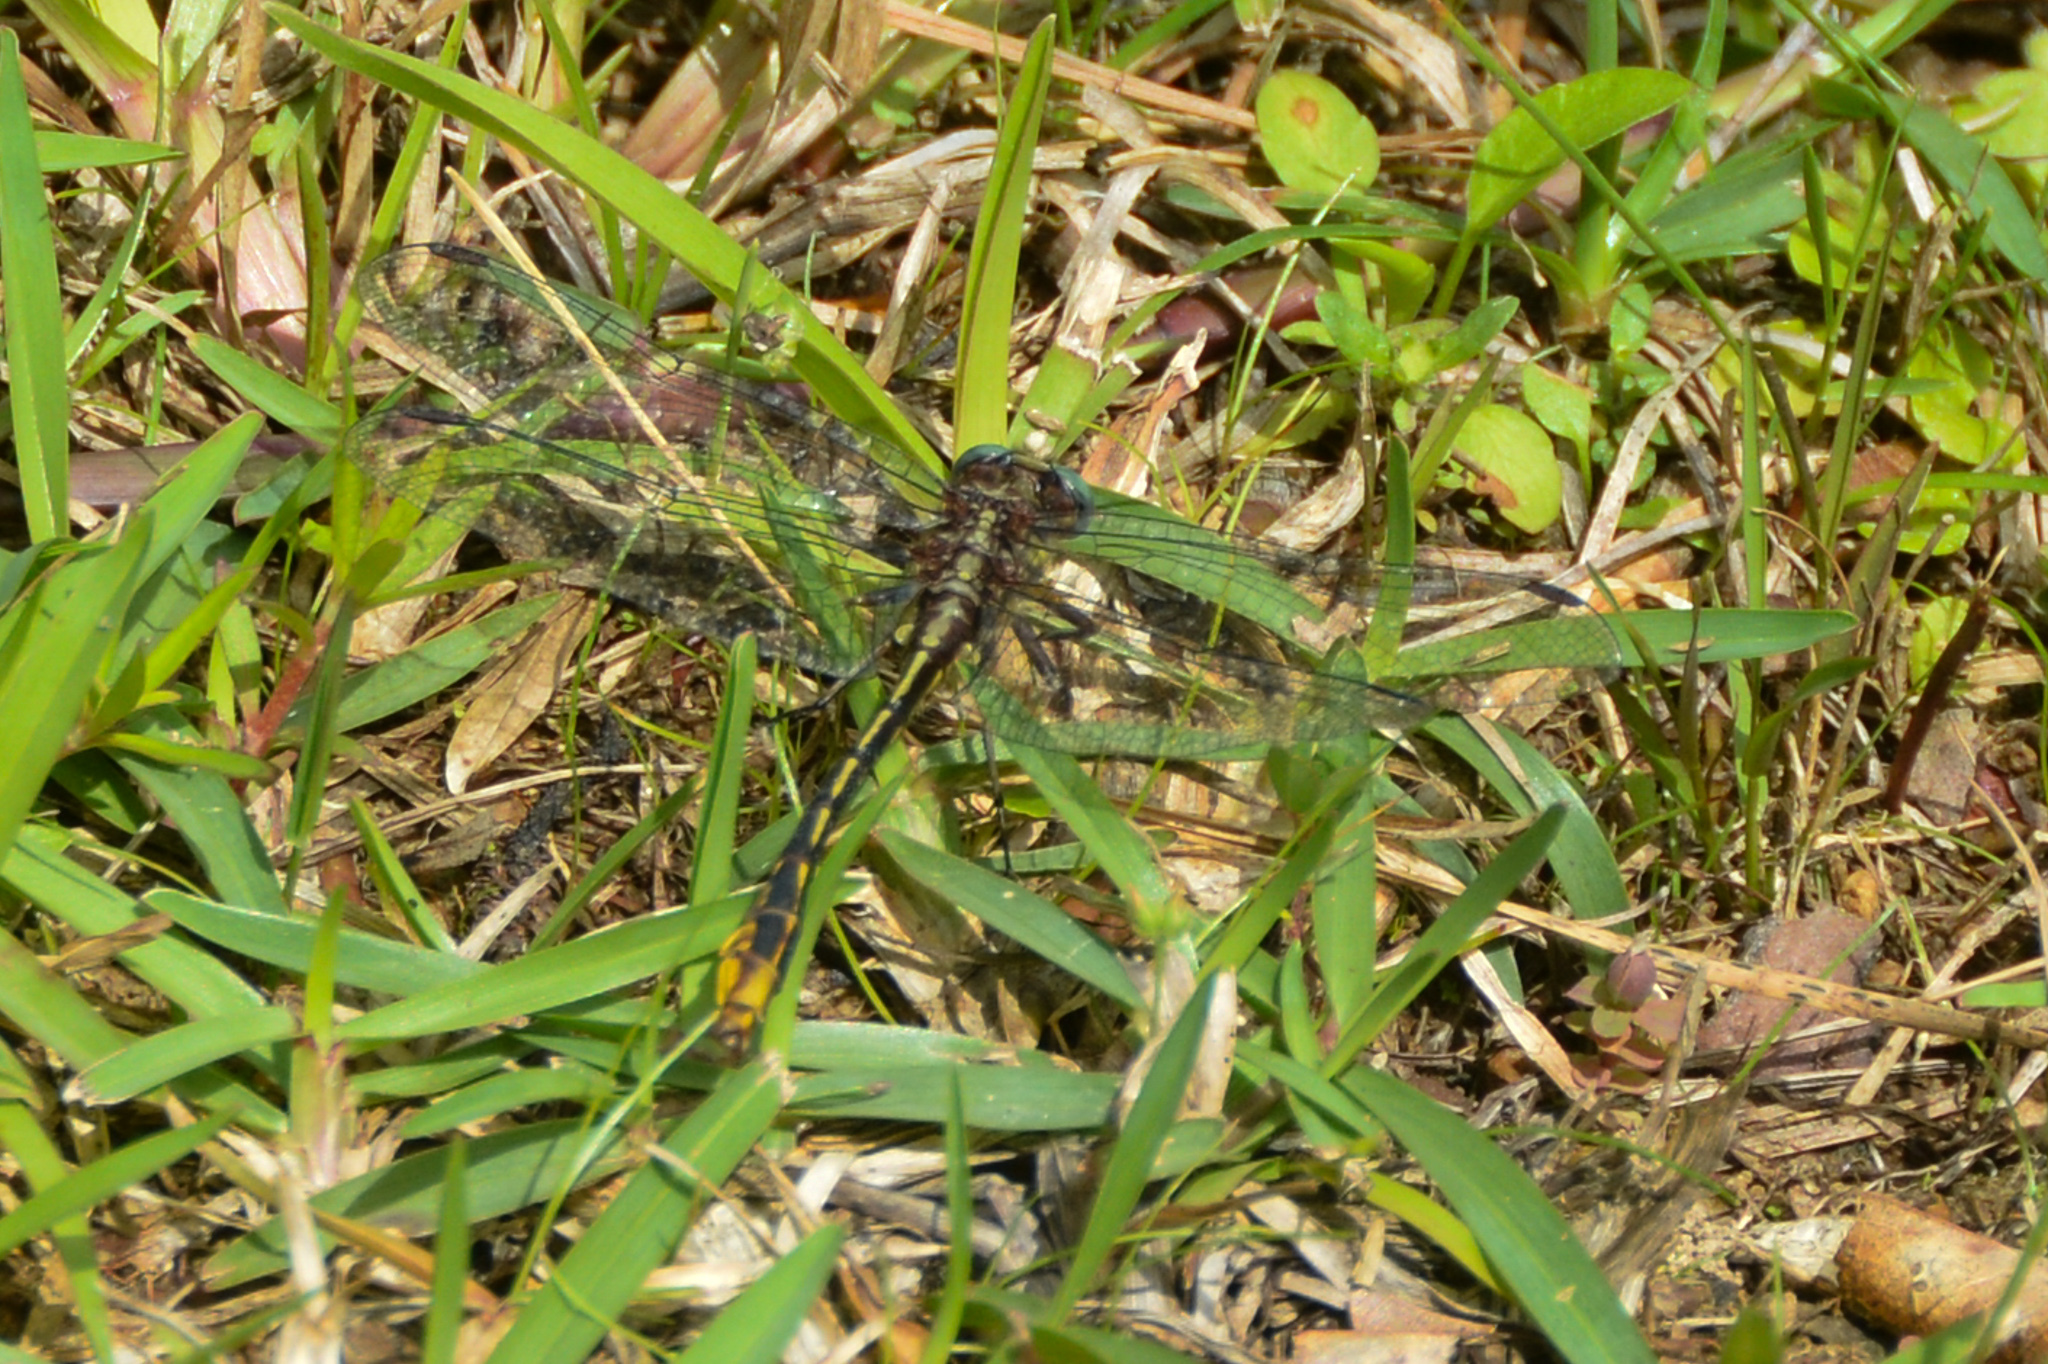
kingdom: Animalia
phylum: Arthropoda
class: Insecta
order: Odonata
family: Gomphidae
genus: Phanogomphus
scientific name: Phanogomphus exilis
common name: Lancet clubtail
